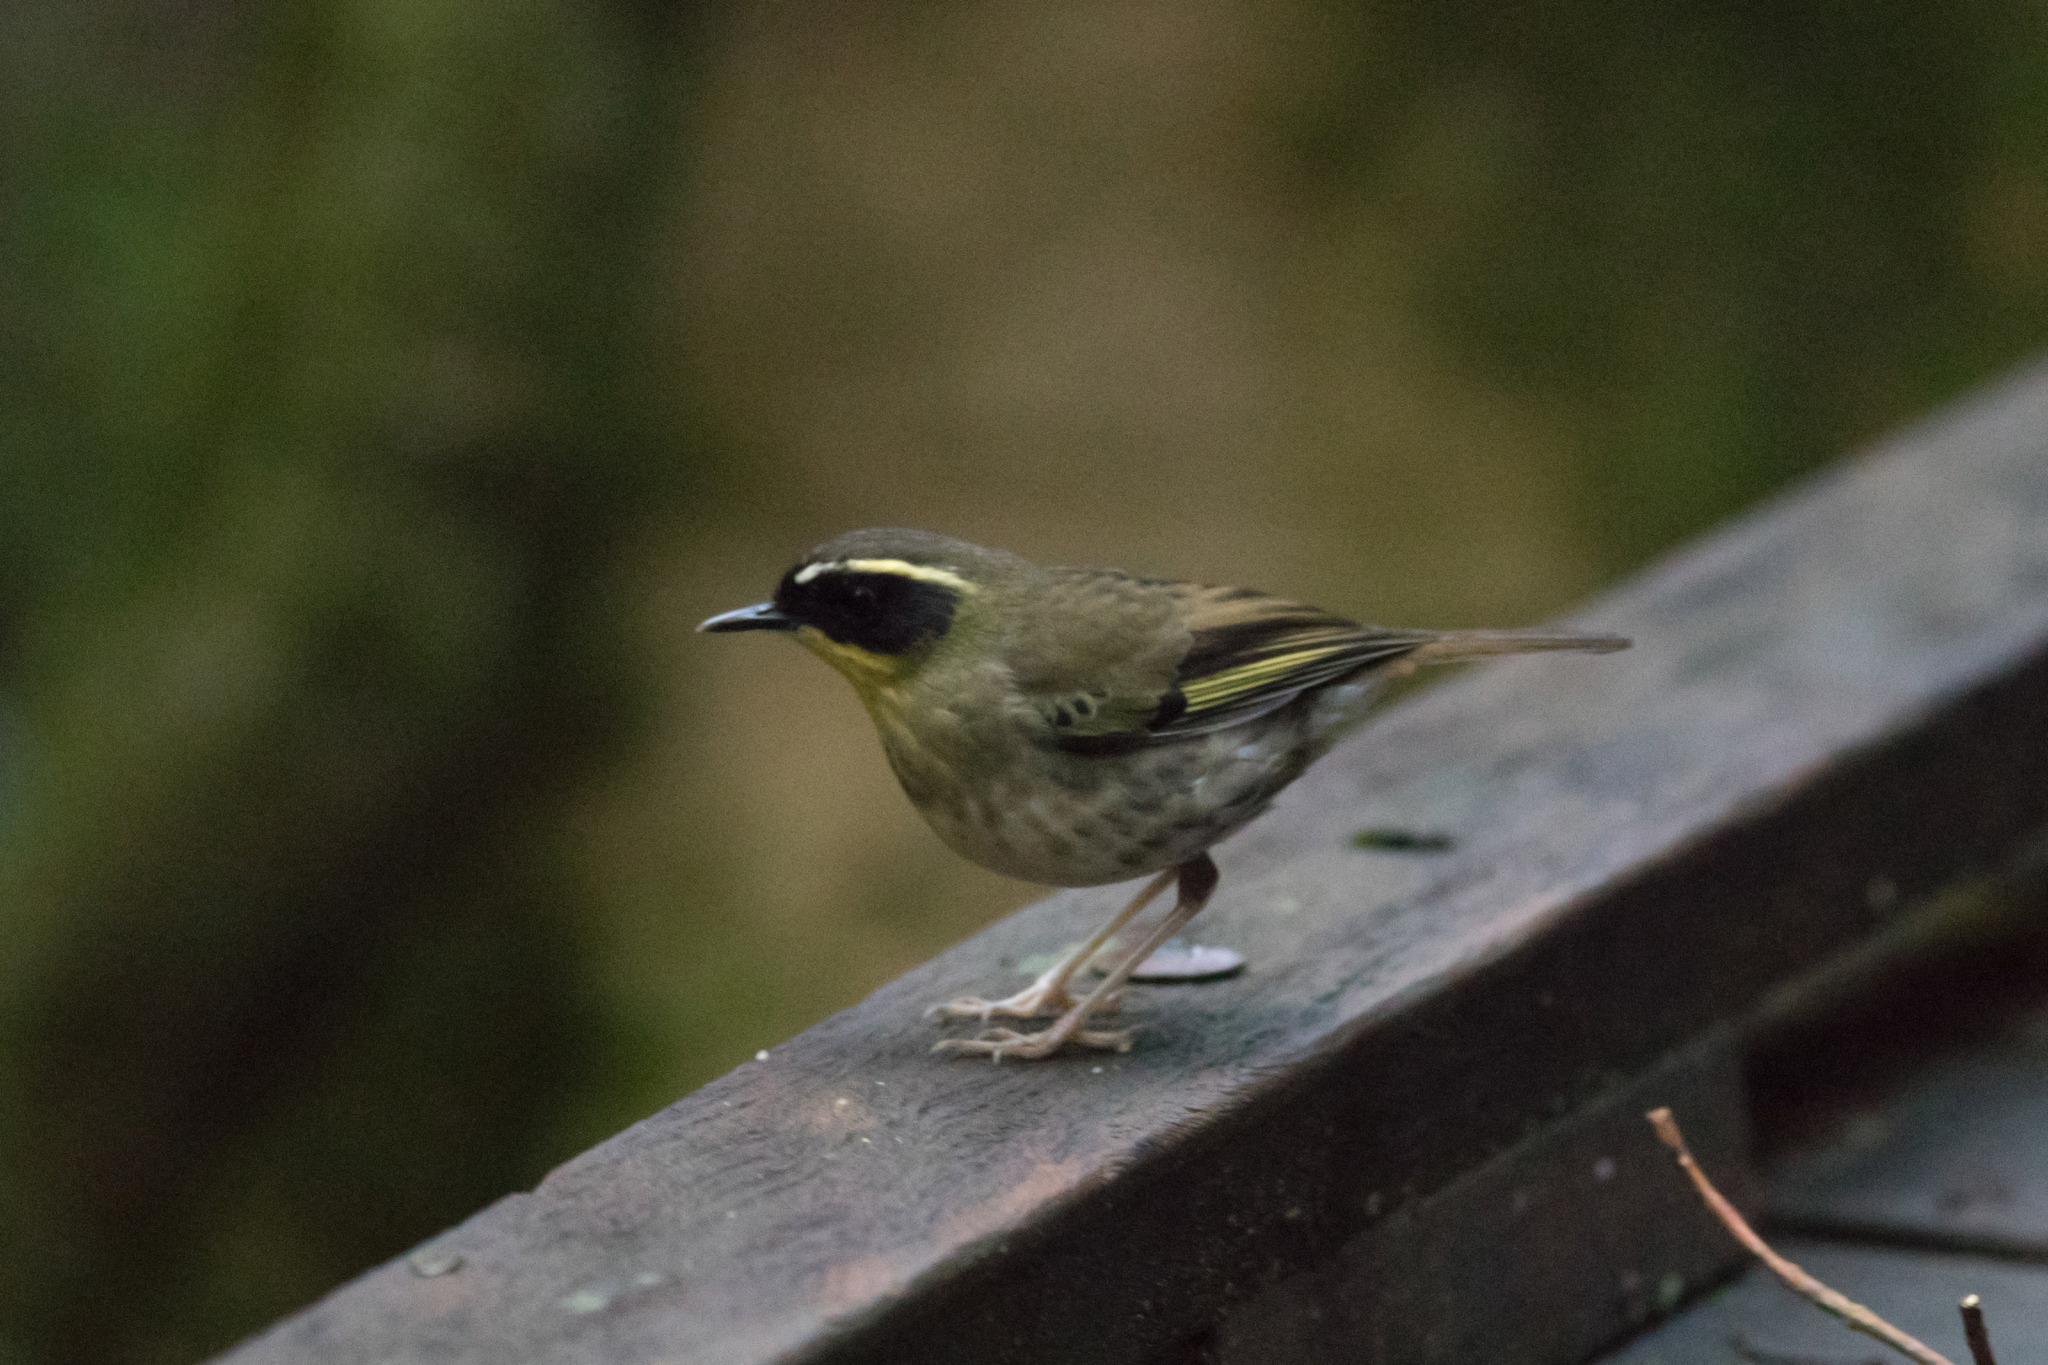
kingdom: Animalia
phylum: Chordata
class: Aves
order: Passeriformes
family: Acanthizidae
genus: Sericornis
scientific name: Sericornis citreogularis
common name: Yellow-throated scrubwren
